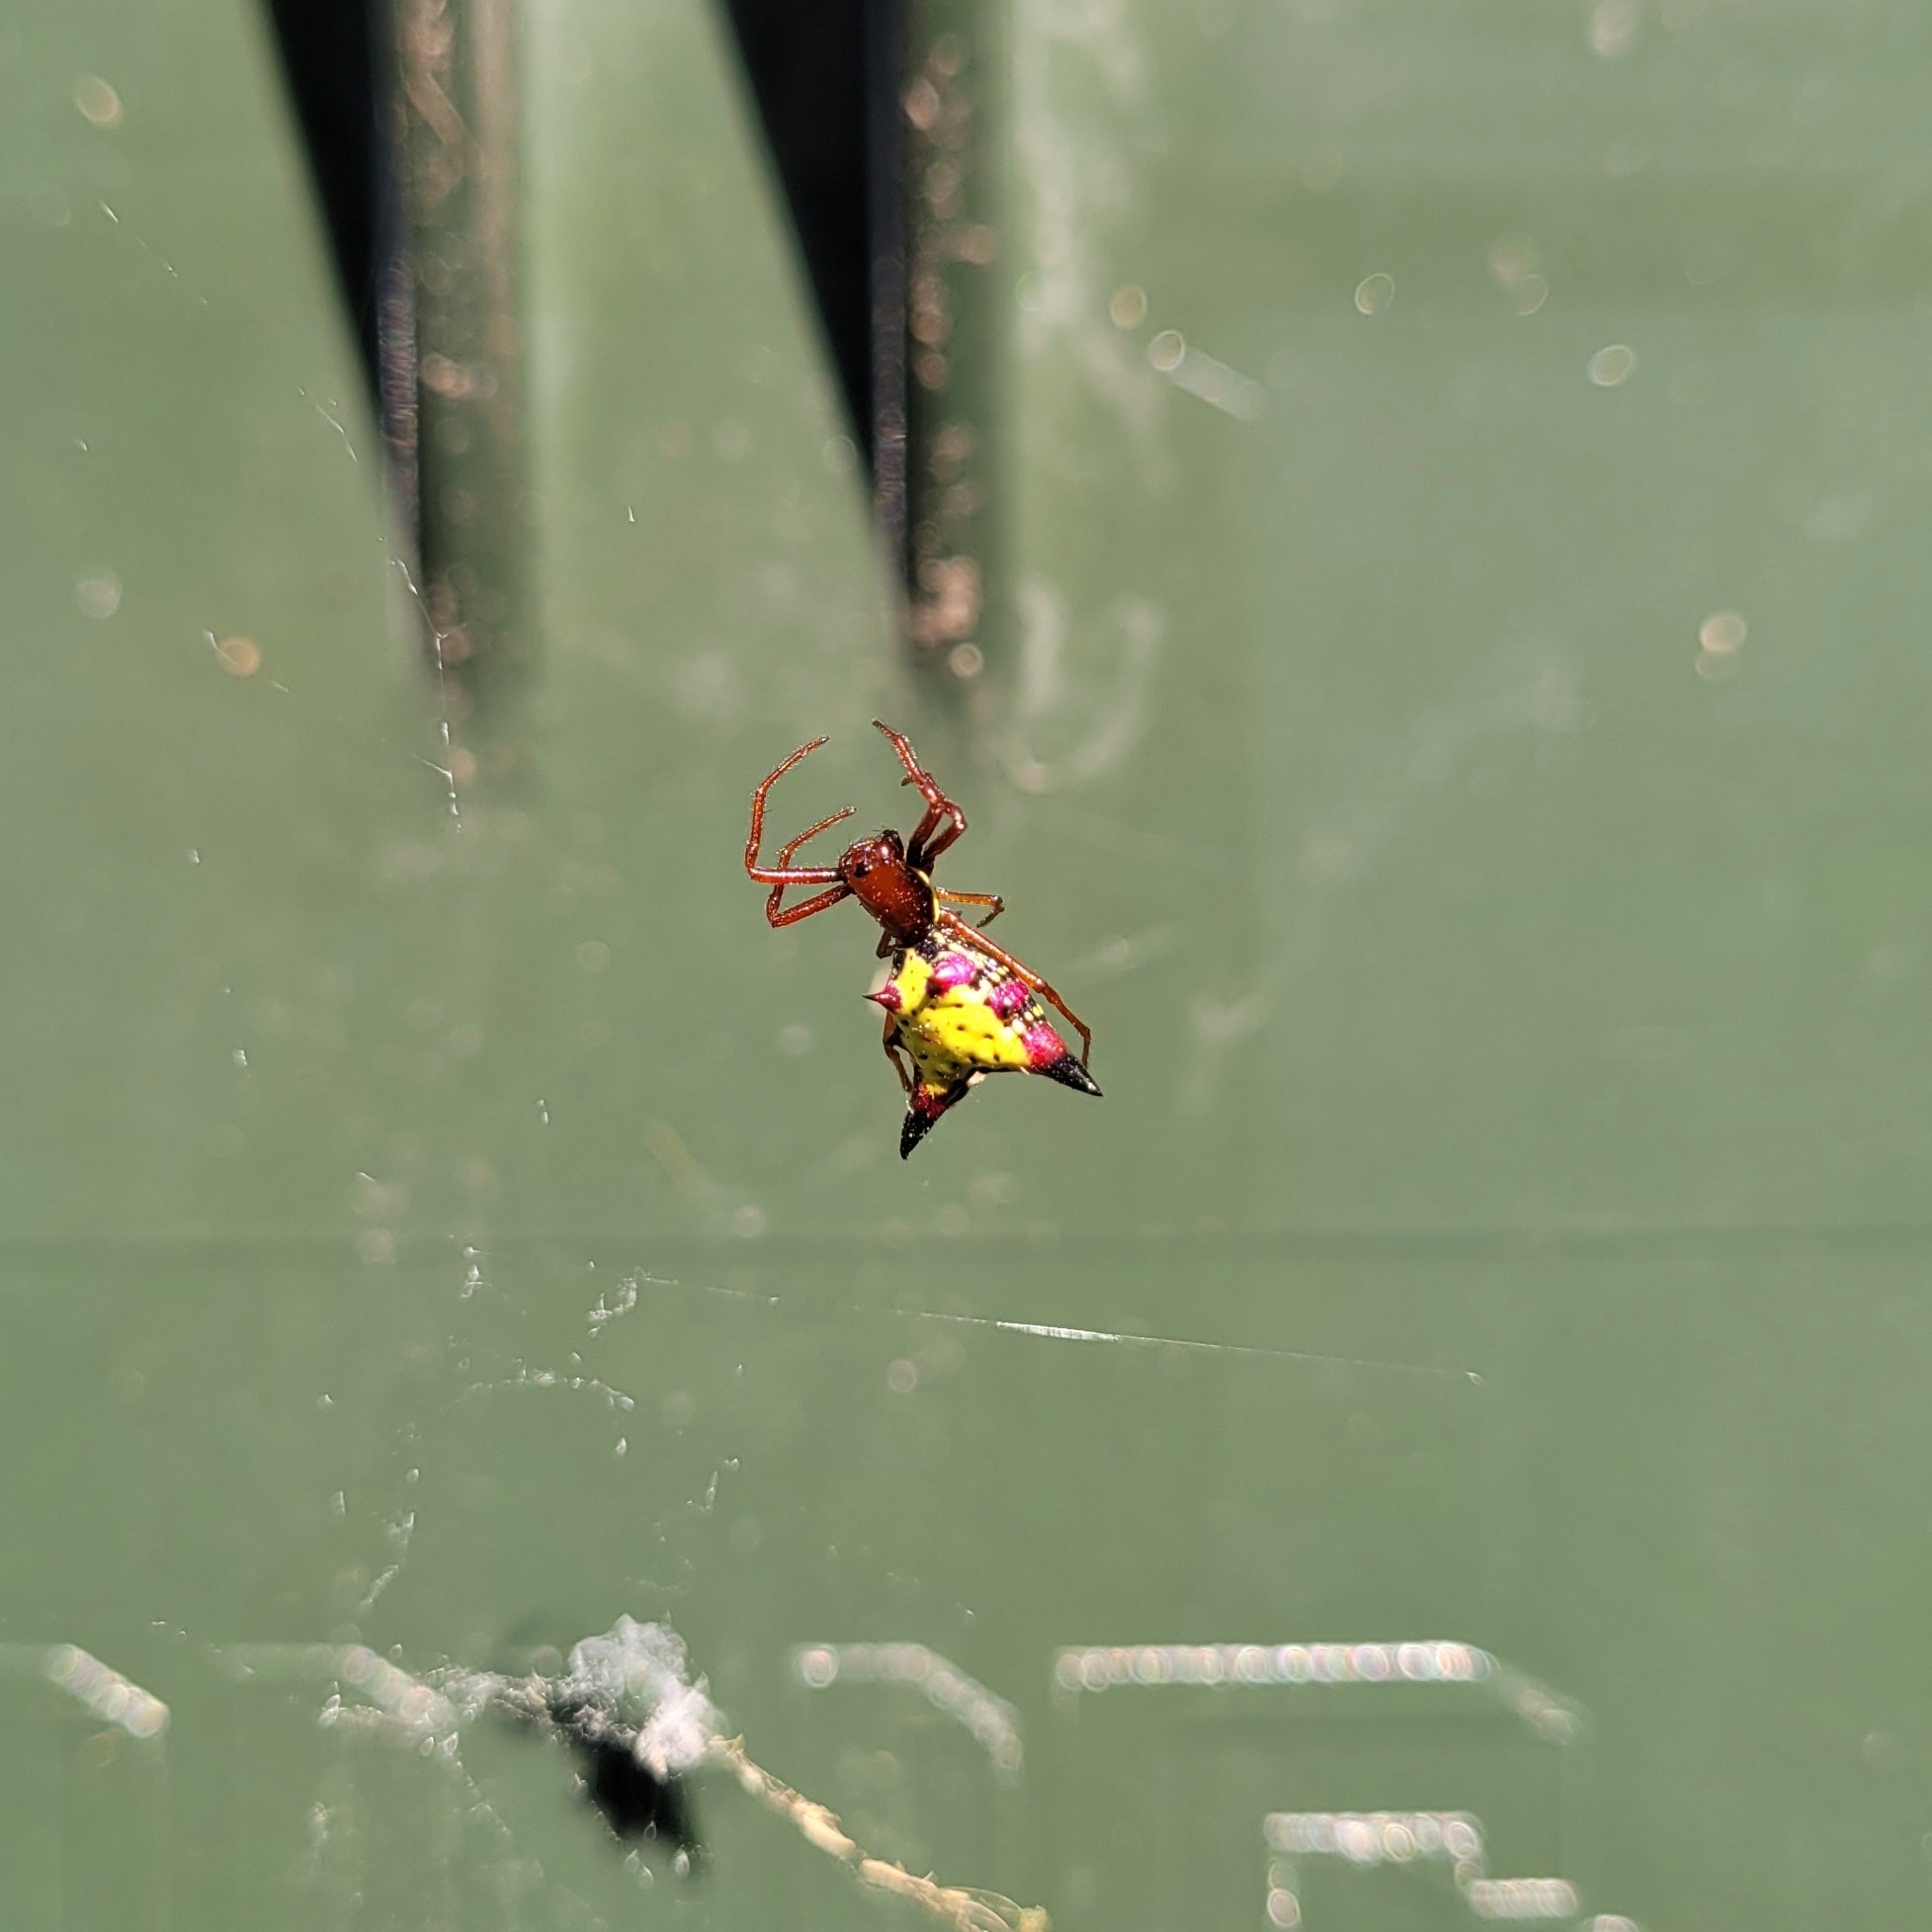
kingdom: Animalia
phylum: Arthropoda
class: Arachnida
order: Araneae
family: Araneidae
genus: Micrathena
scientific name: Micrathena sagittata
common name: Orb weavers
